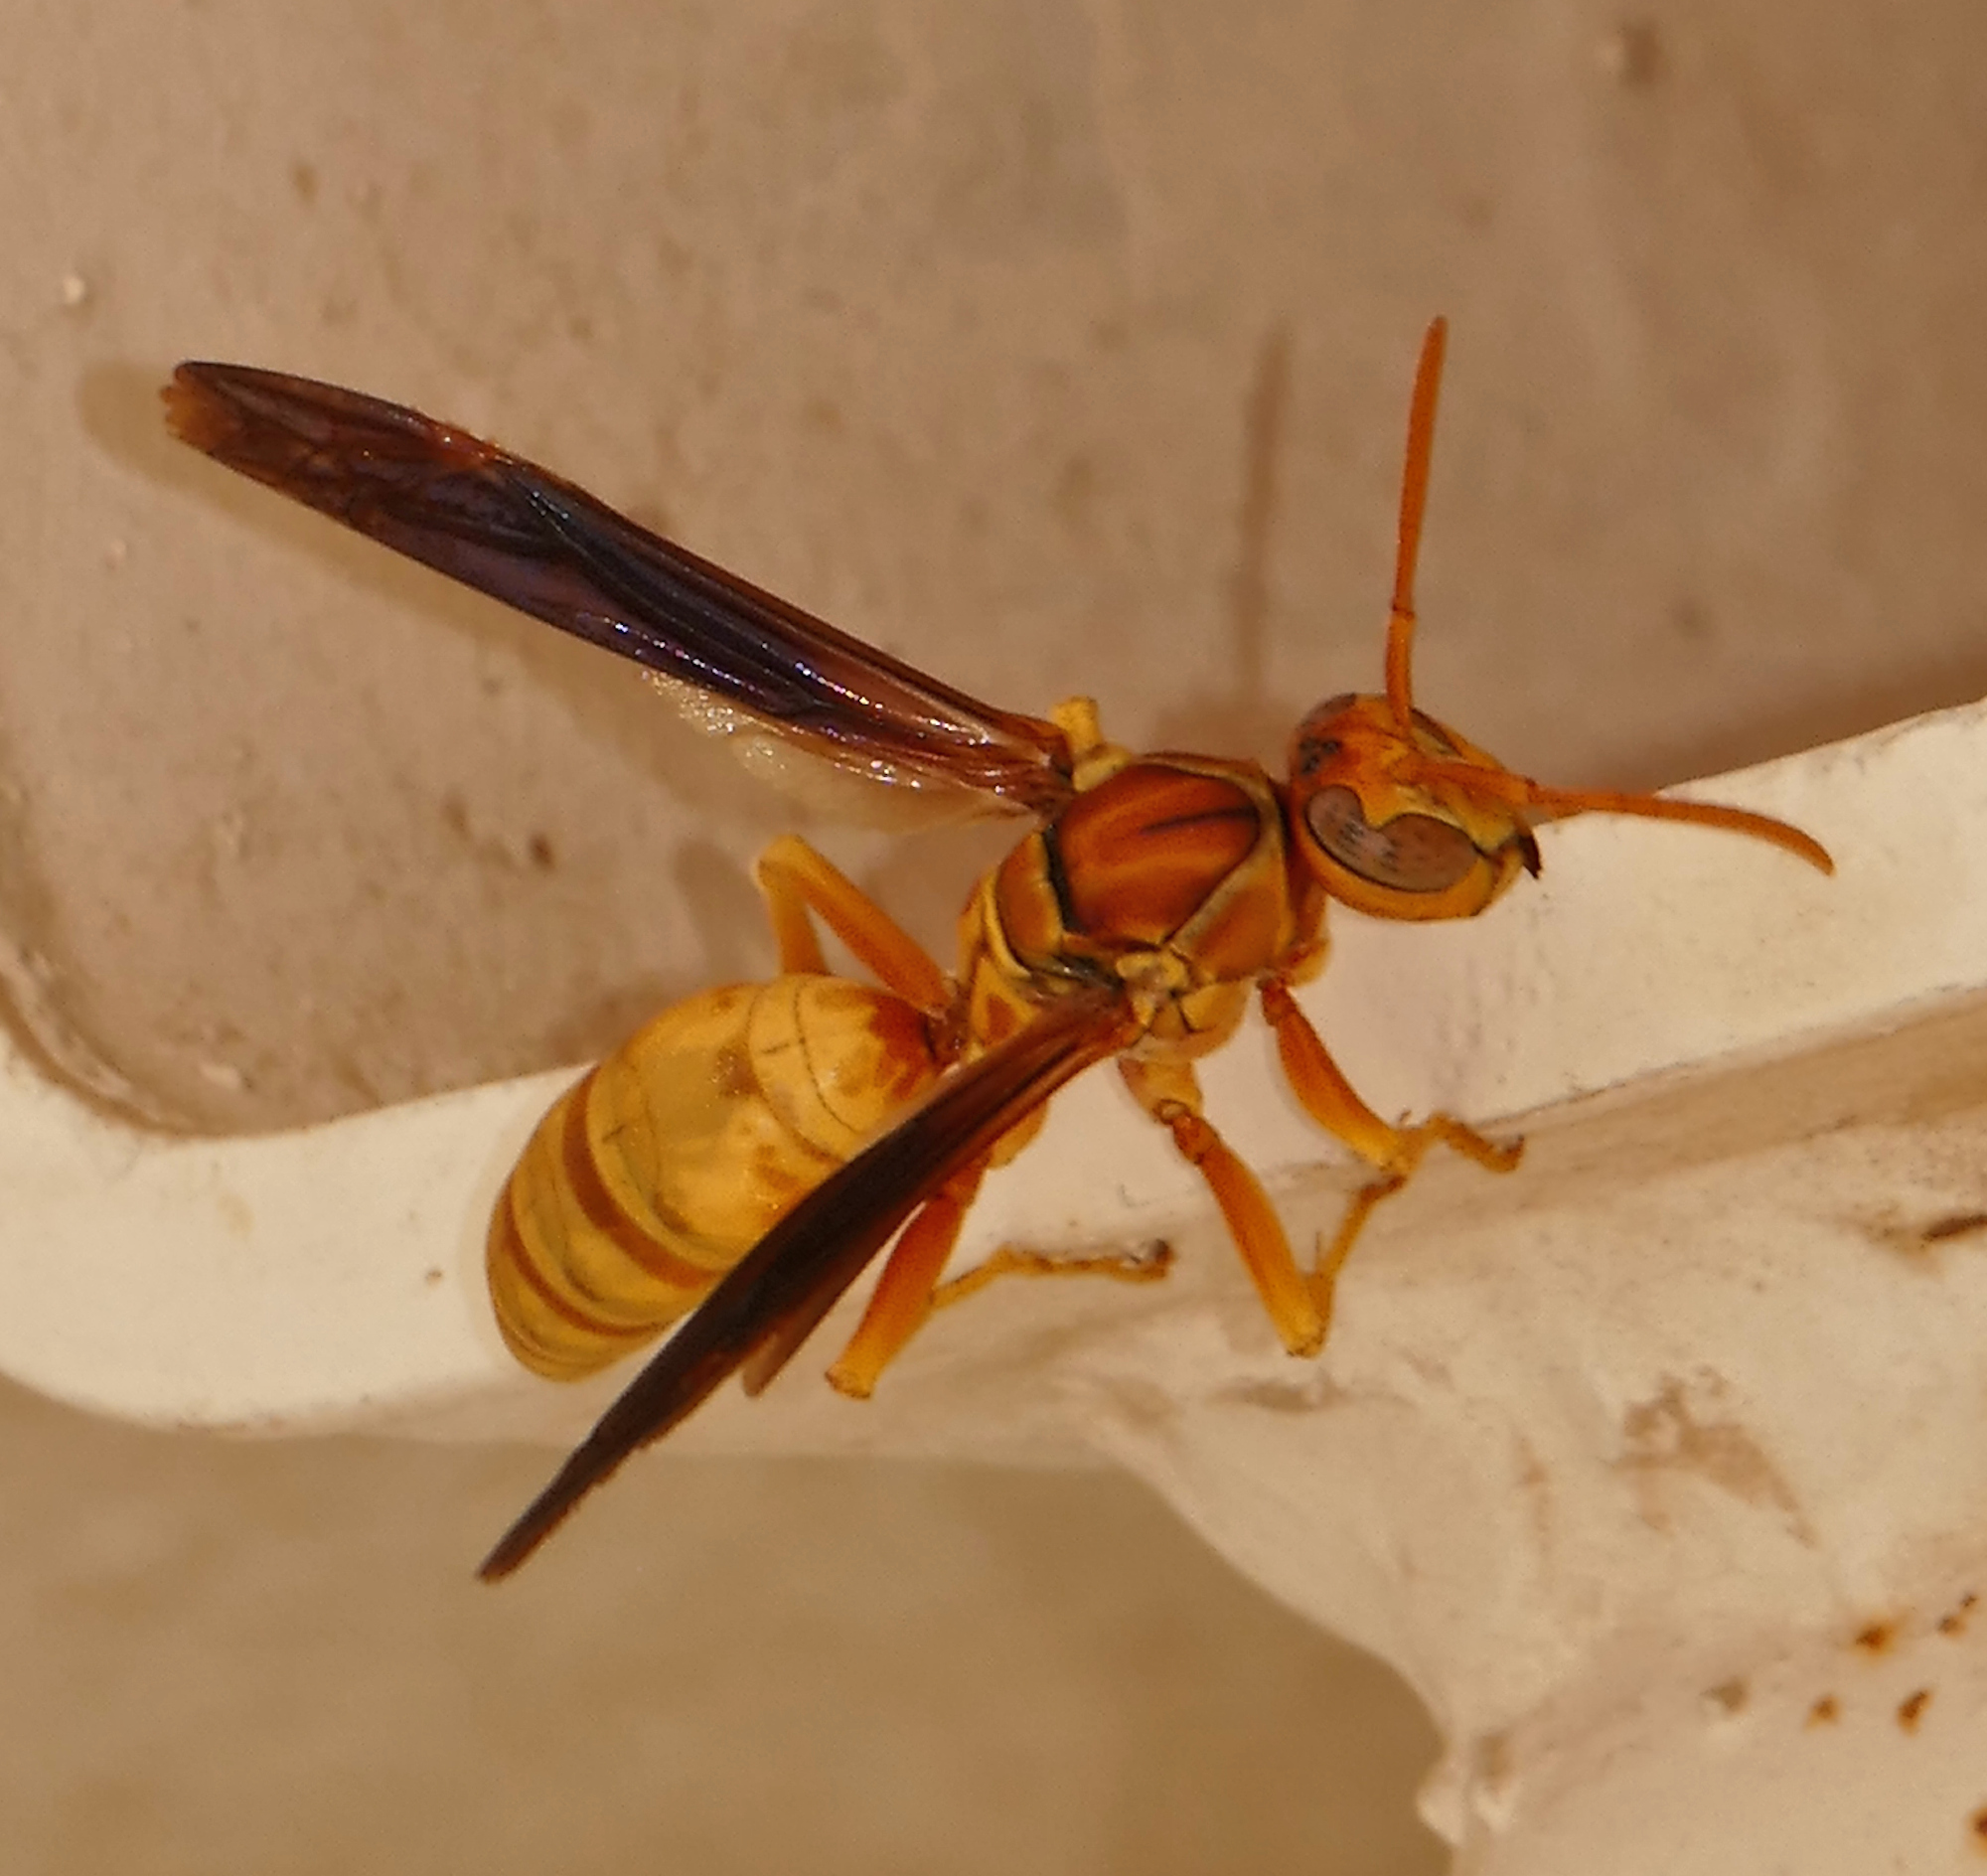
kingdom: Animalia
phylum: Arthropoda
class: Insecta
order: Hymenoptera
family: Eumenidae
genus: Polistes
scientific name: Polistes flavus
